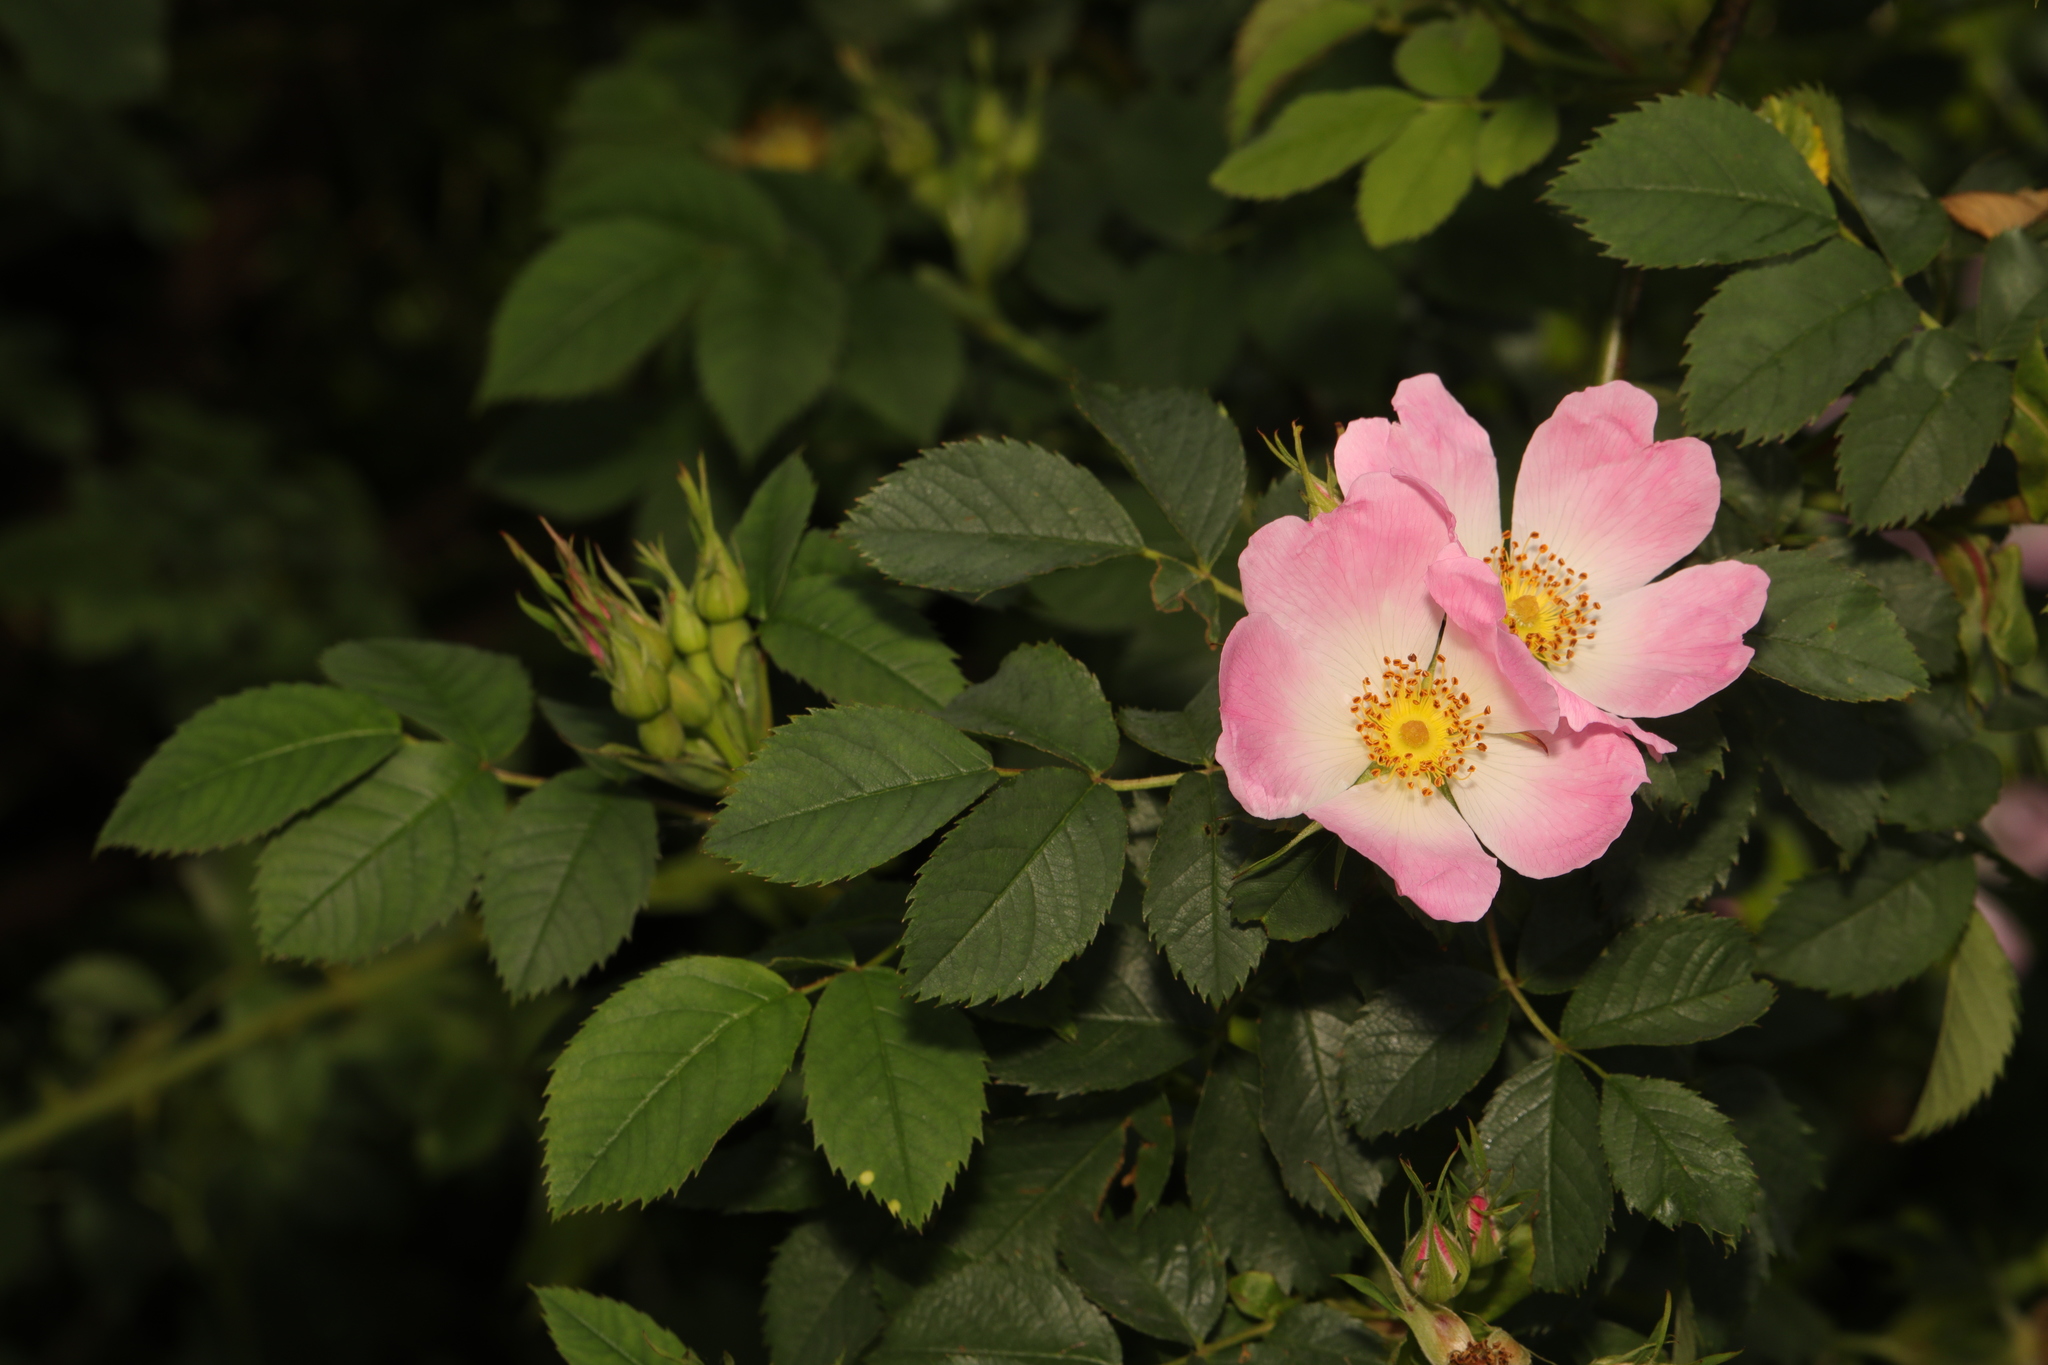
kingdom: Plantae
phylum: Tracheophyta
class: Magnoliopsida
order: Rosales
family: Rosaceae
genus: Rosa
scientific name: Rosa canina
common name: Dog rose
